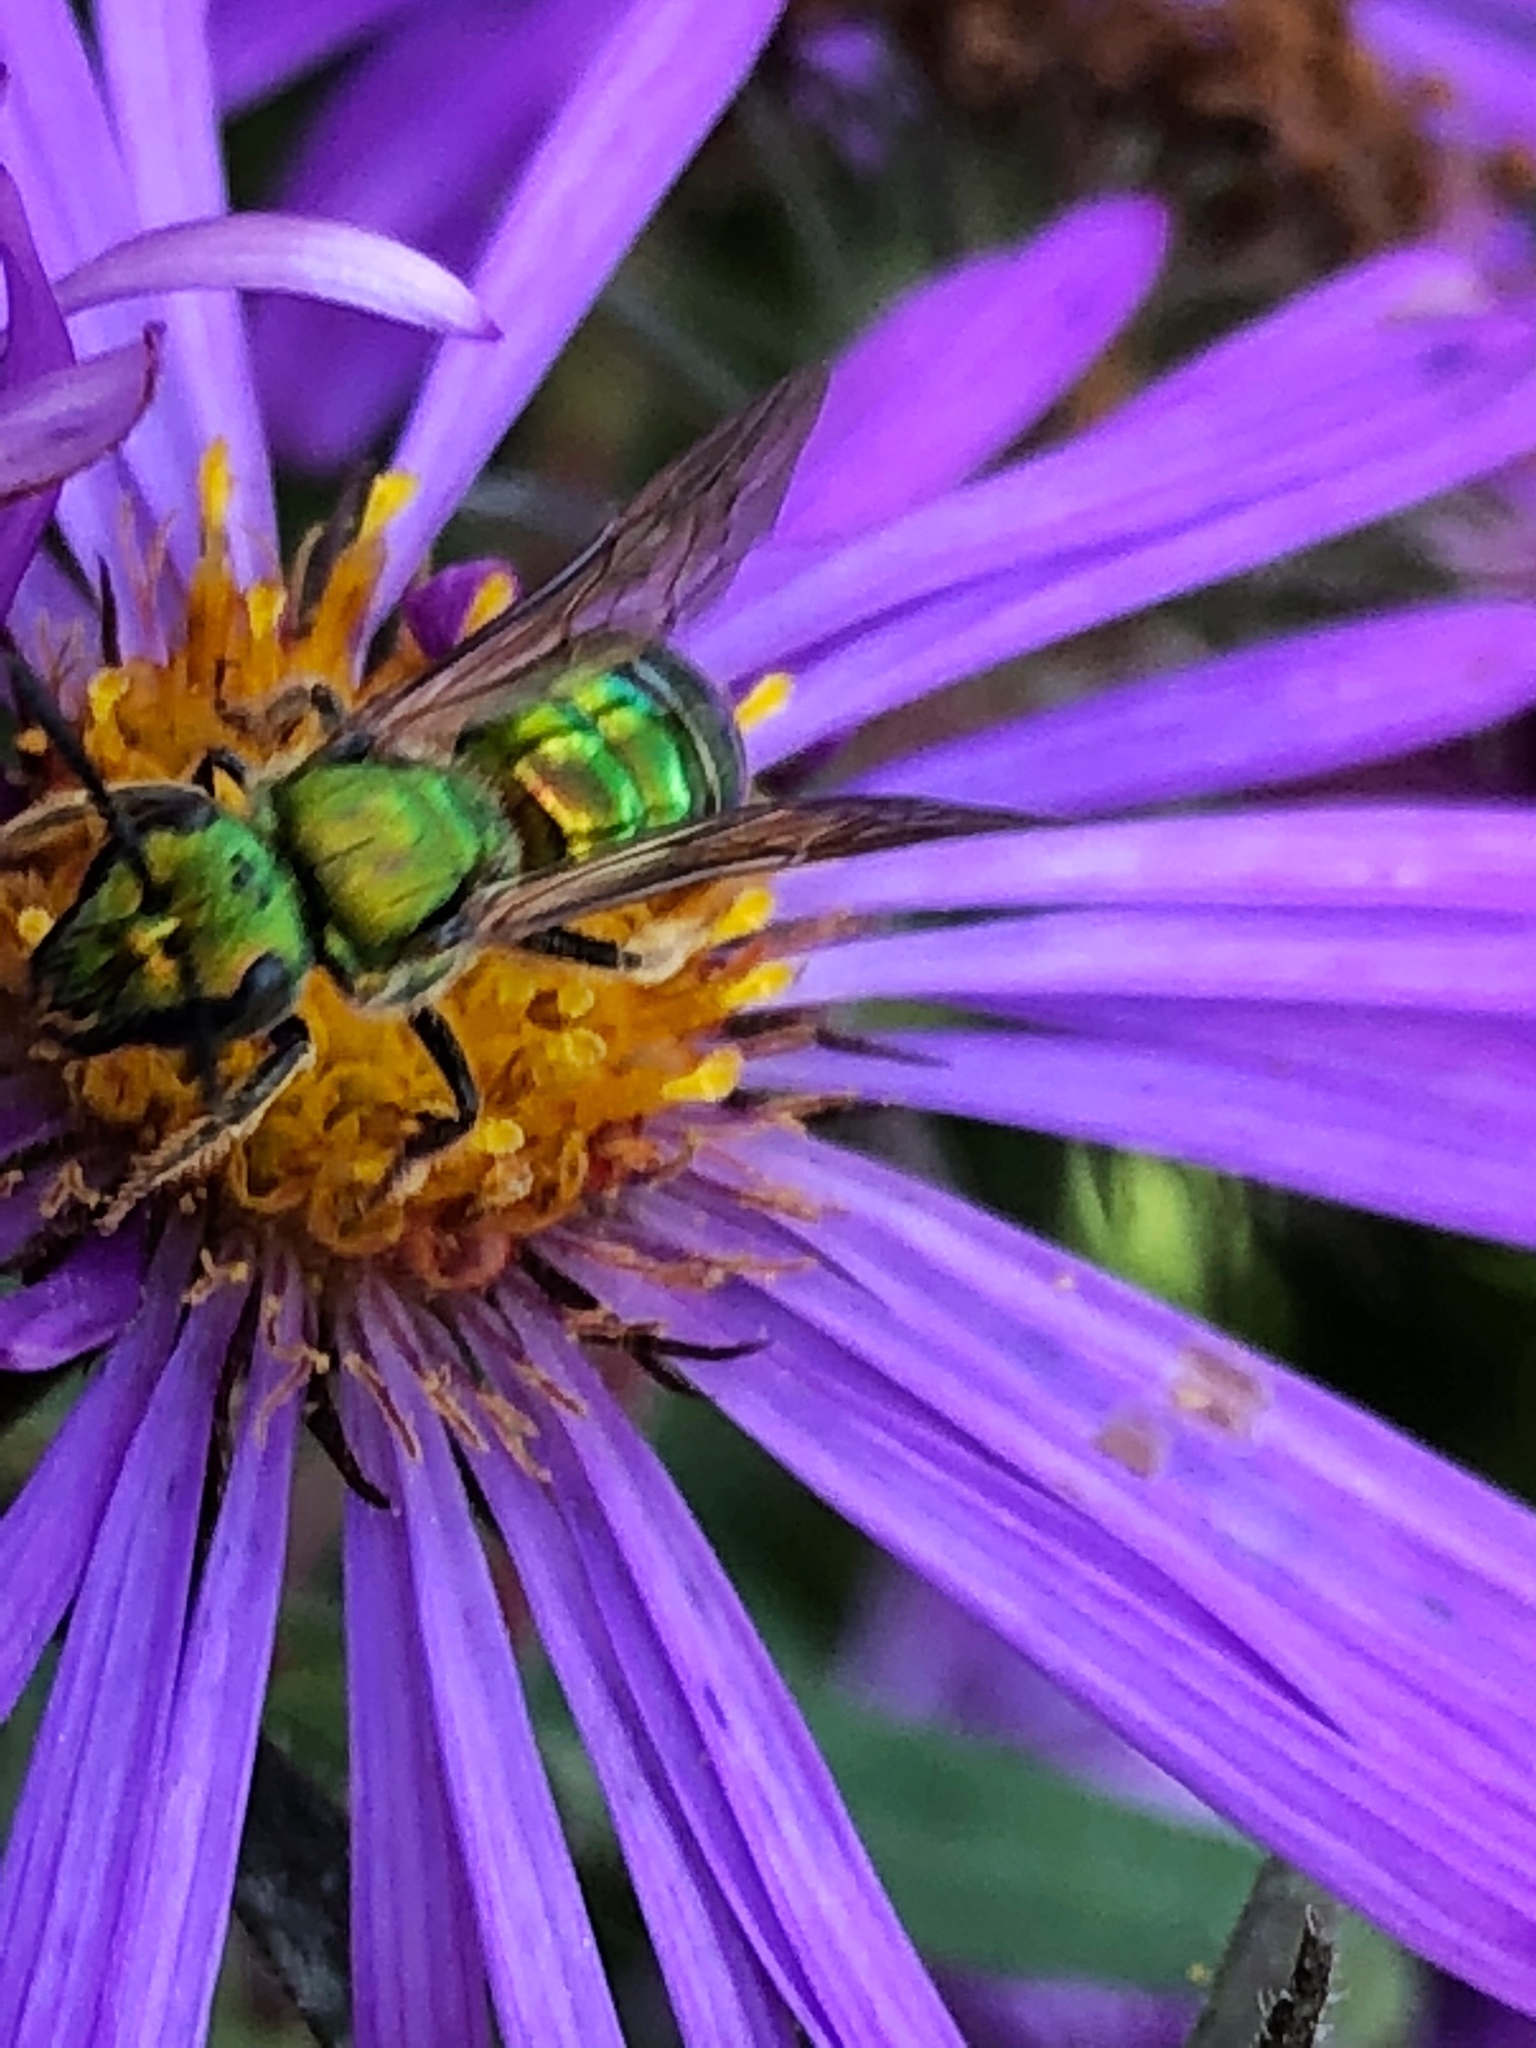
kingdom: Animalia
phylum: Arthropoda
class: Insecta
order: Hymenoptera
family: Halictidae
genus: Augochlora
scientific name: Augochlora pura
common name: Pure green sweat bee
